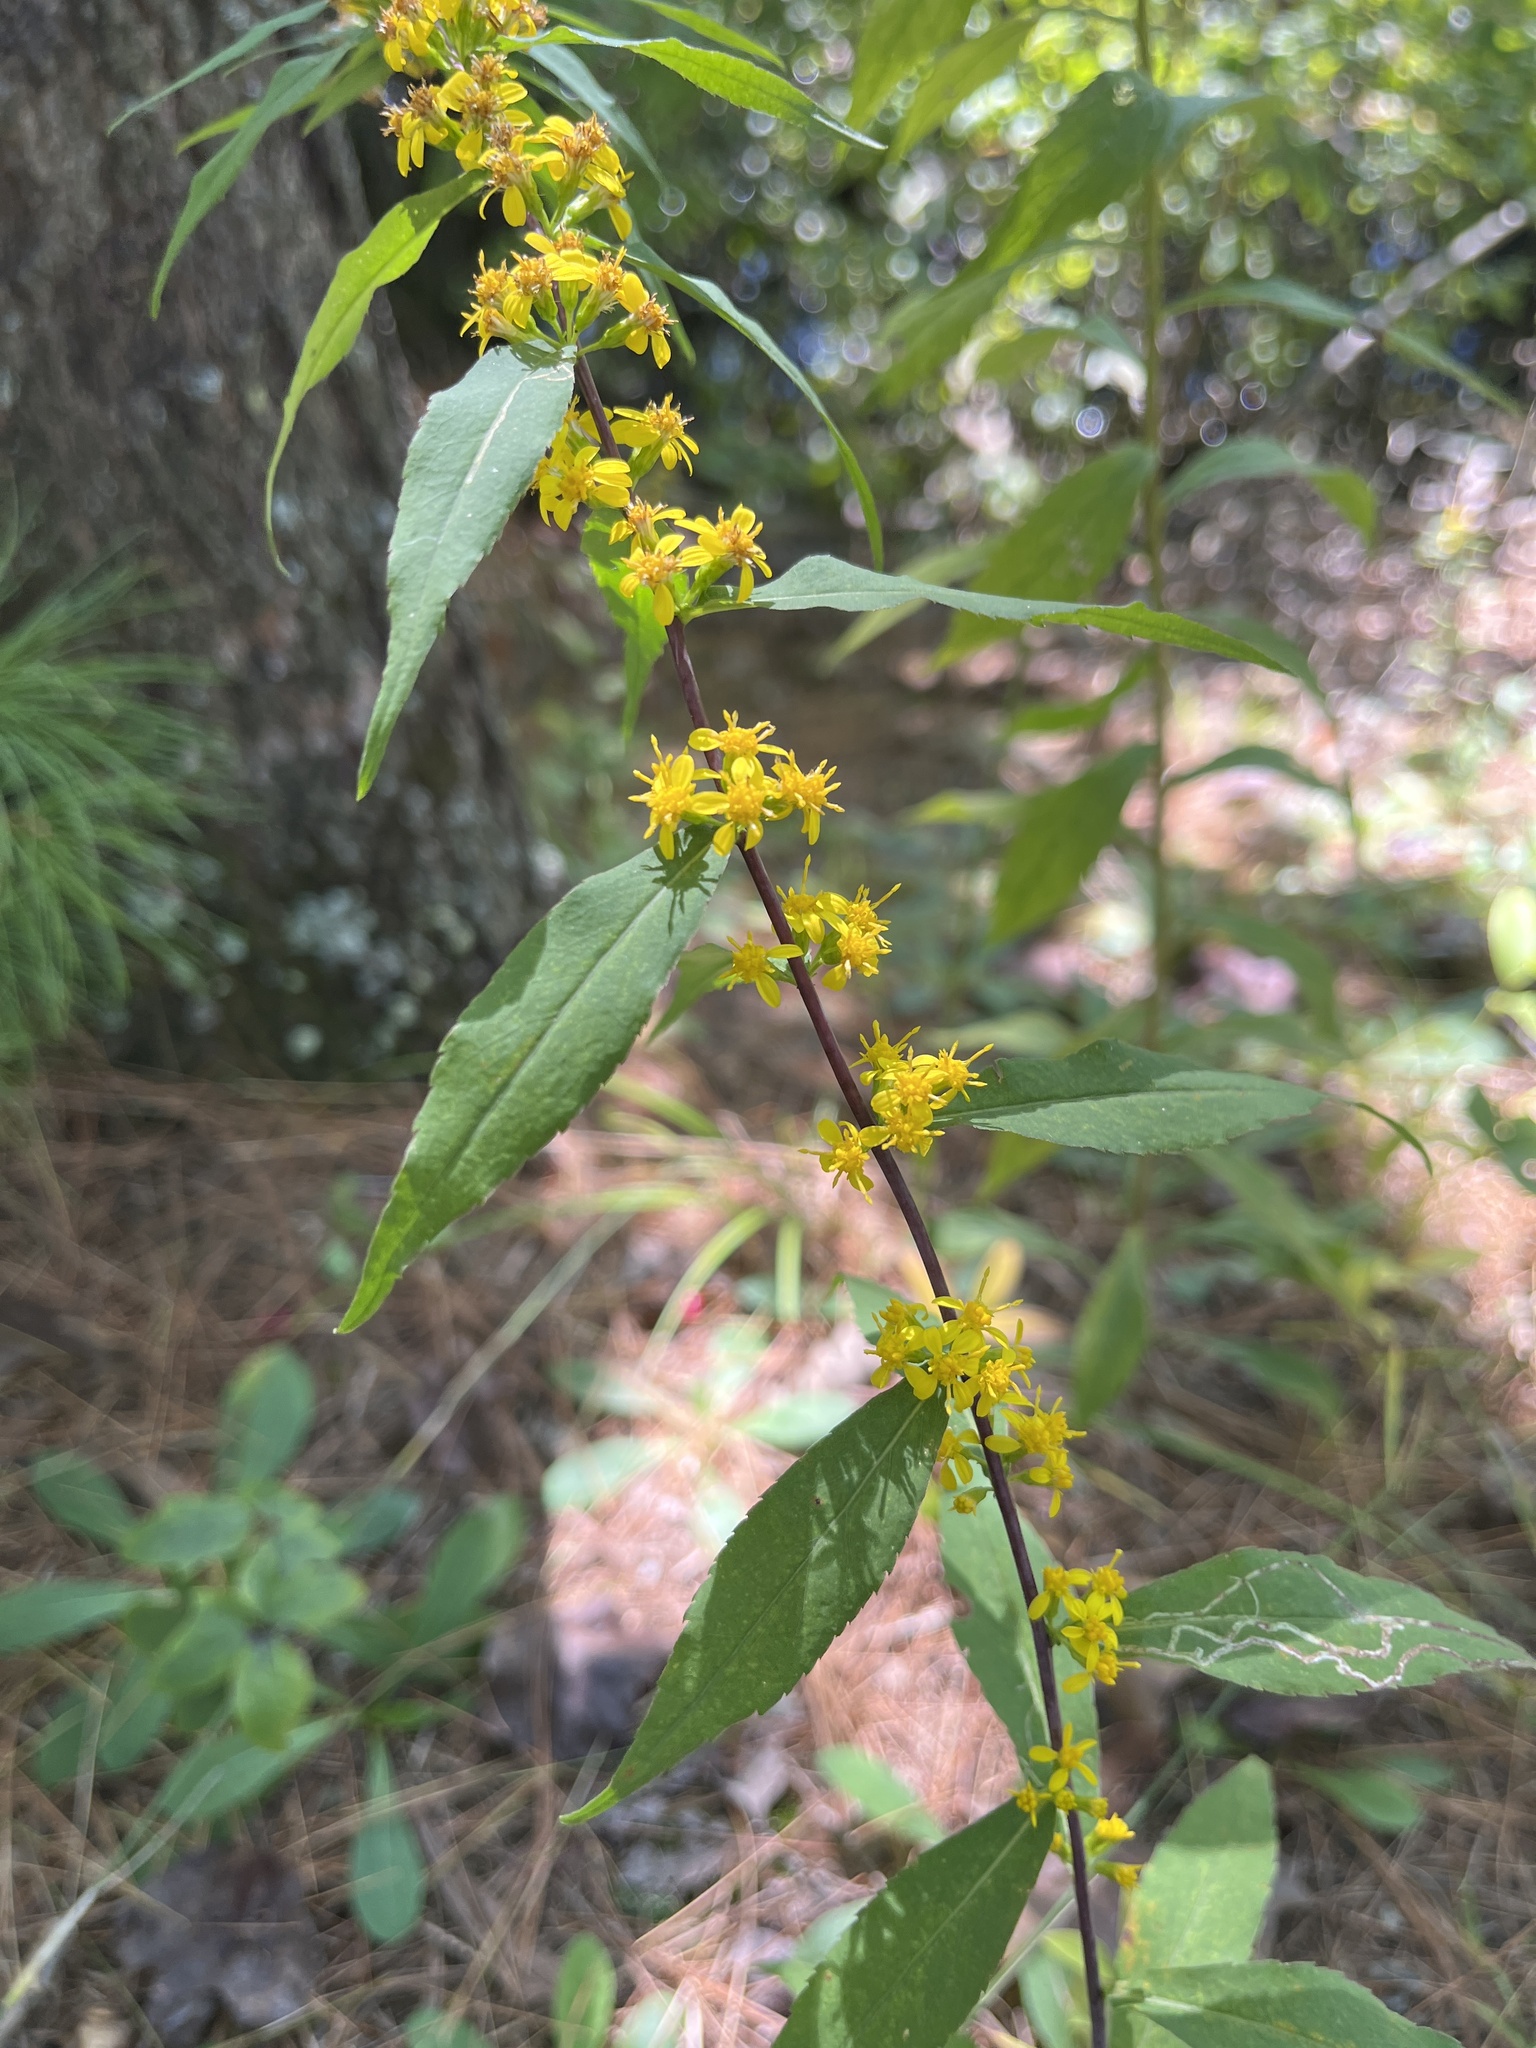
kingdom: Plantae
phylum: Tracheophyta
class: Magnoliopsida
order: Asterales
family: Asteraceae
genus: Solidago
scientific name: Solidago caesia
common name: Woodland goldenrod
